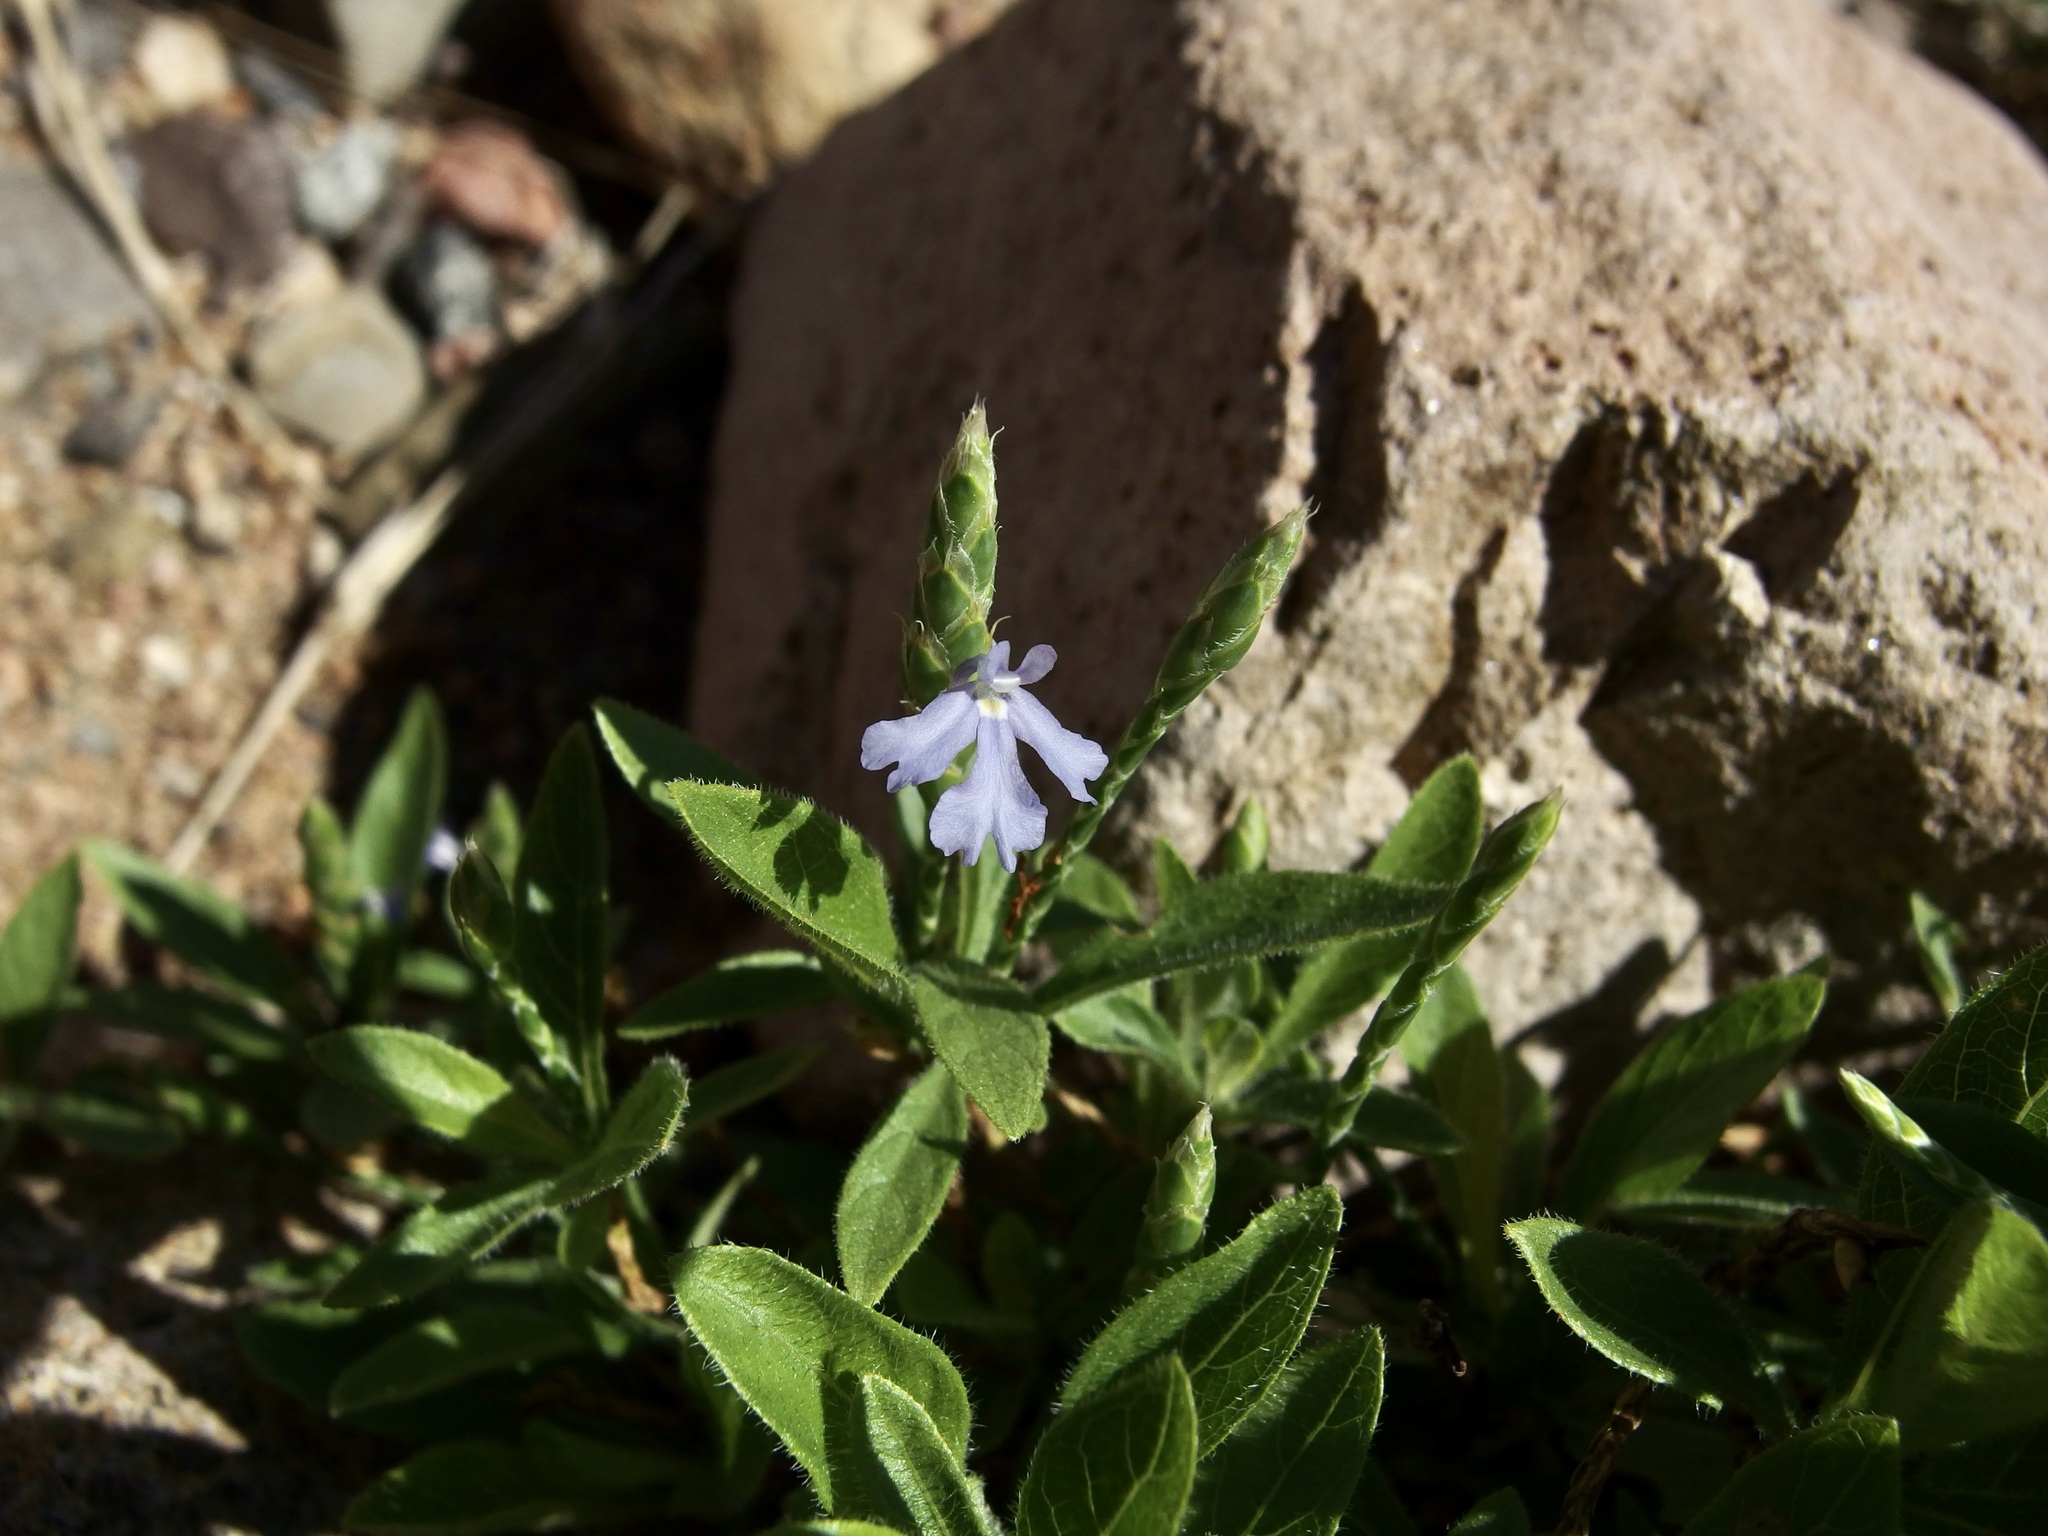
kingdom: Plantae
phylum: Tracheophyta
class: Magnoliopsida
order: Lamiales
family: Acanthaceae
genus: Elytraria
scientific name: Elytraria imbricata
